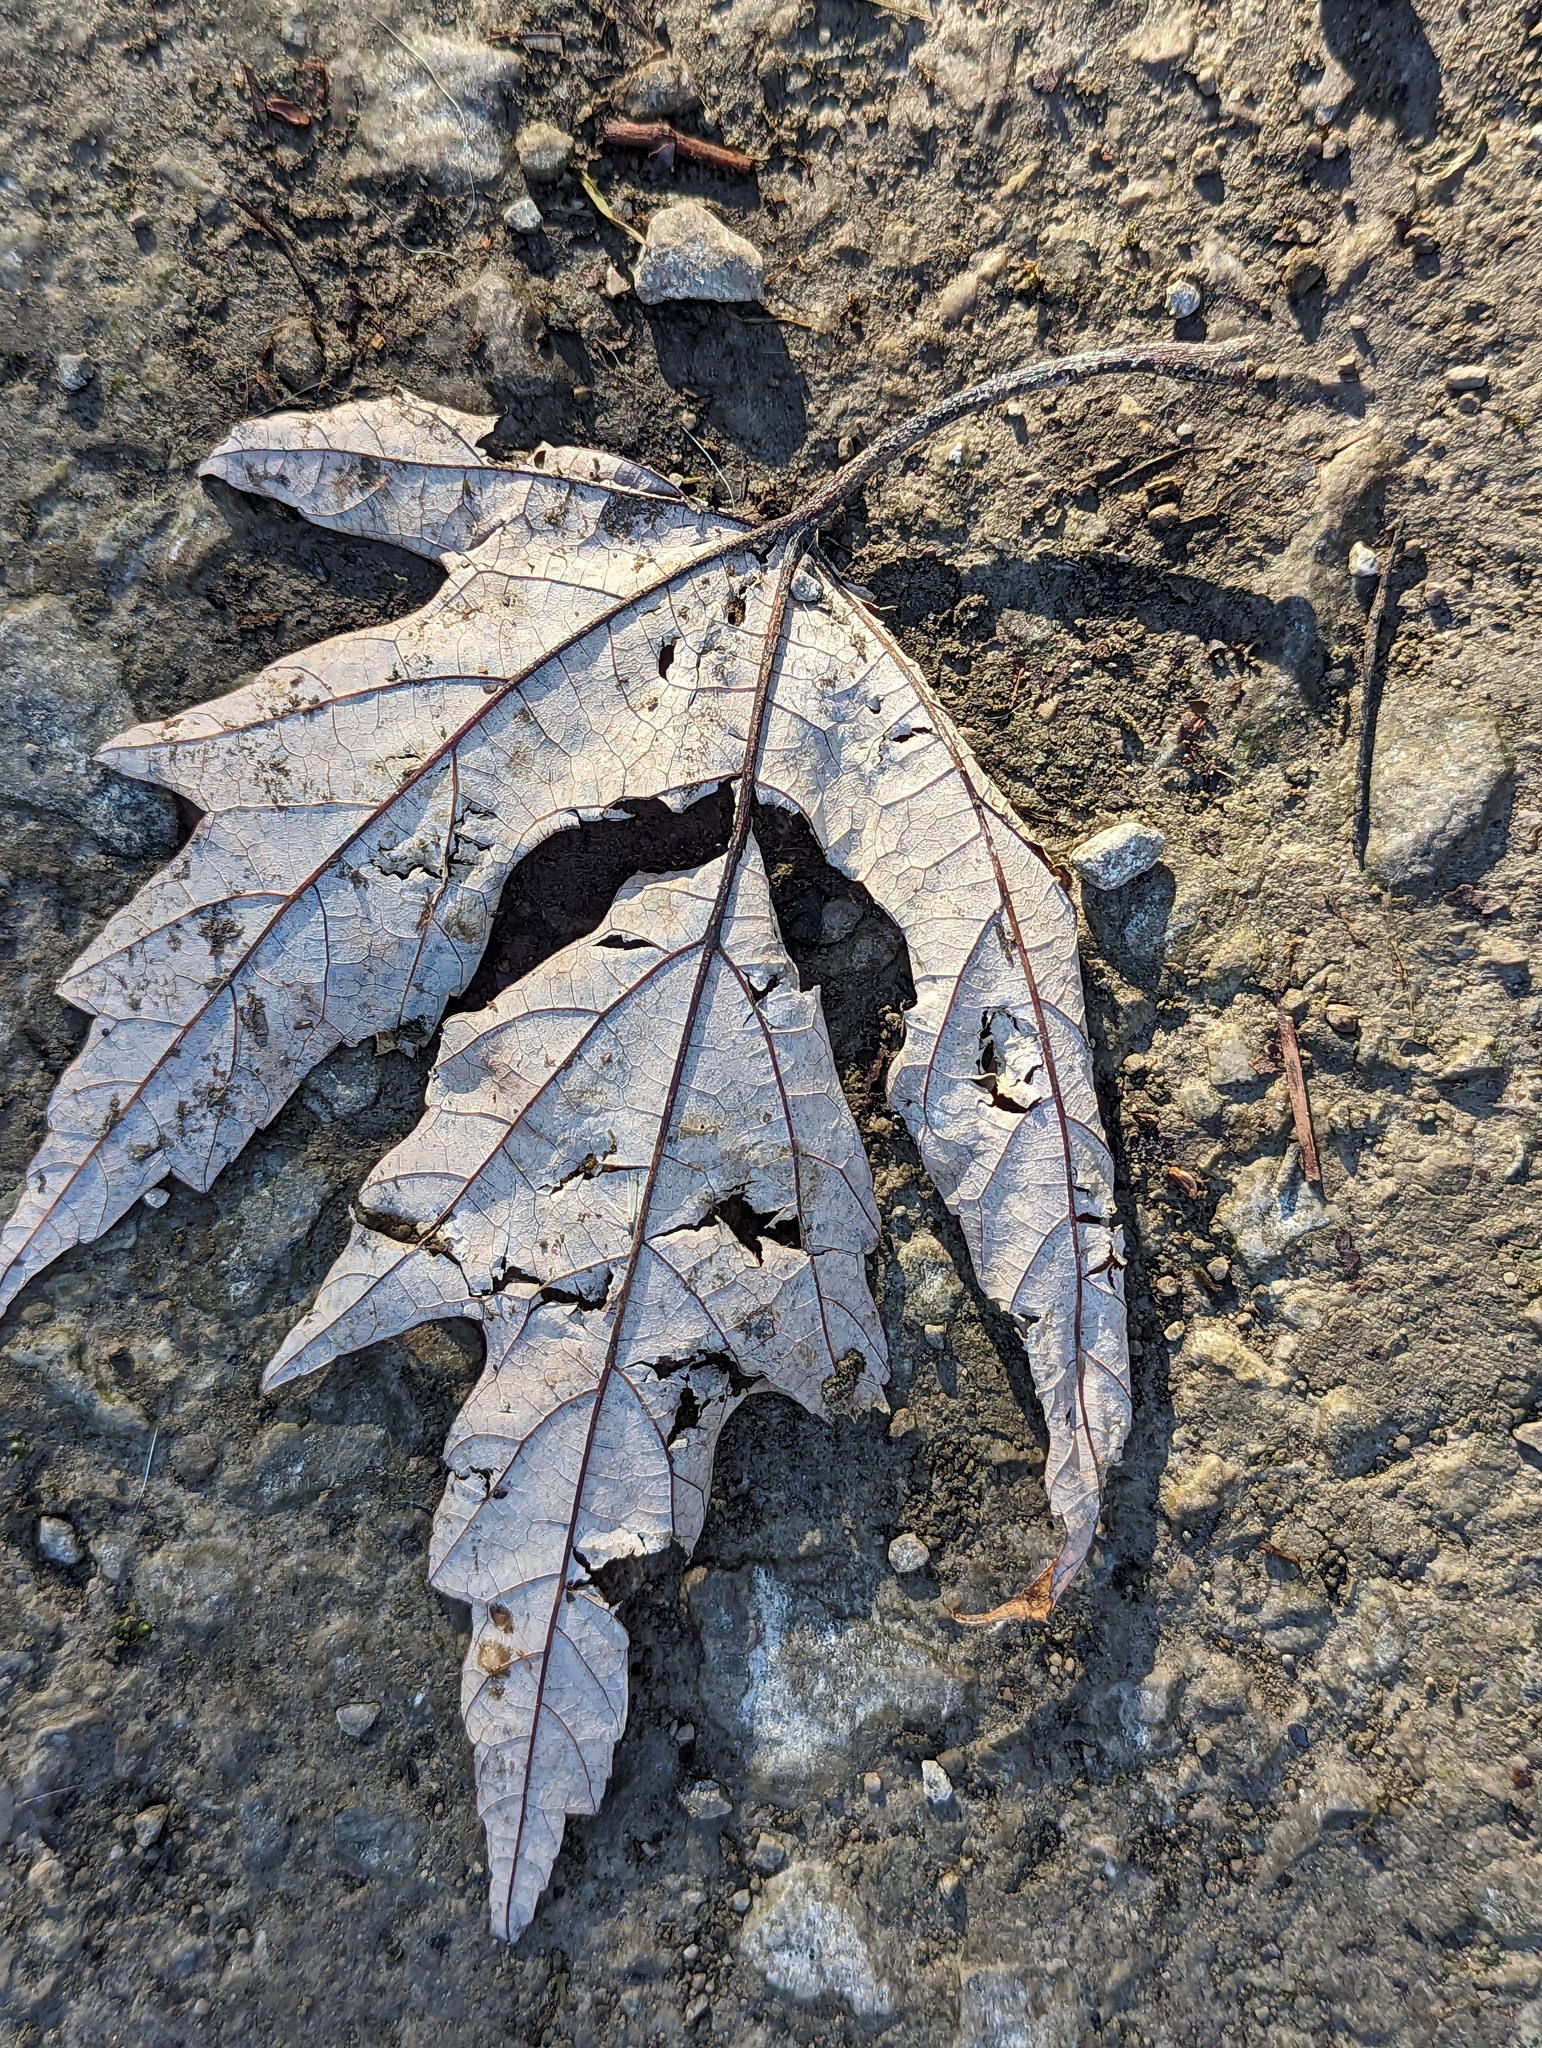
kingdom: Plantae
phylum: Tracheophyta
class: Magnoliopsida
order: Sapindales
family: Sapindaceae
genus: Acer
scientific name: Acer saccharinum
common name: Silver maple
